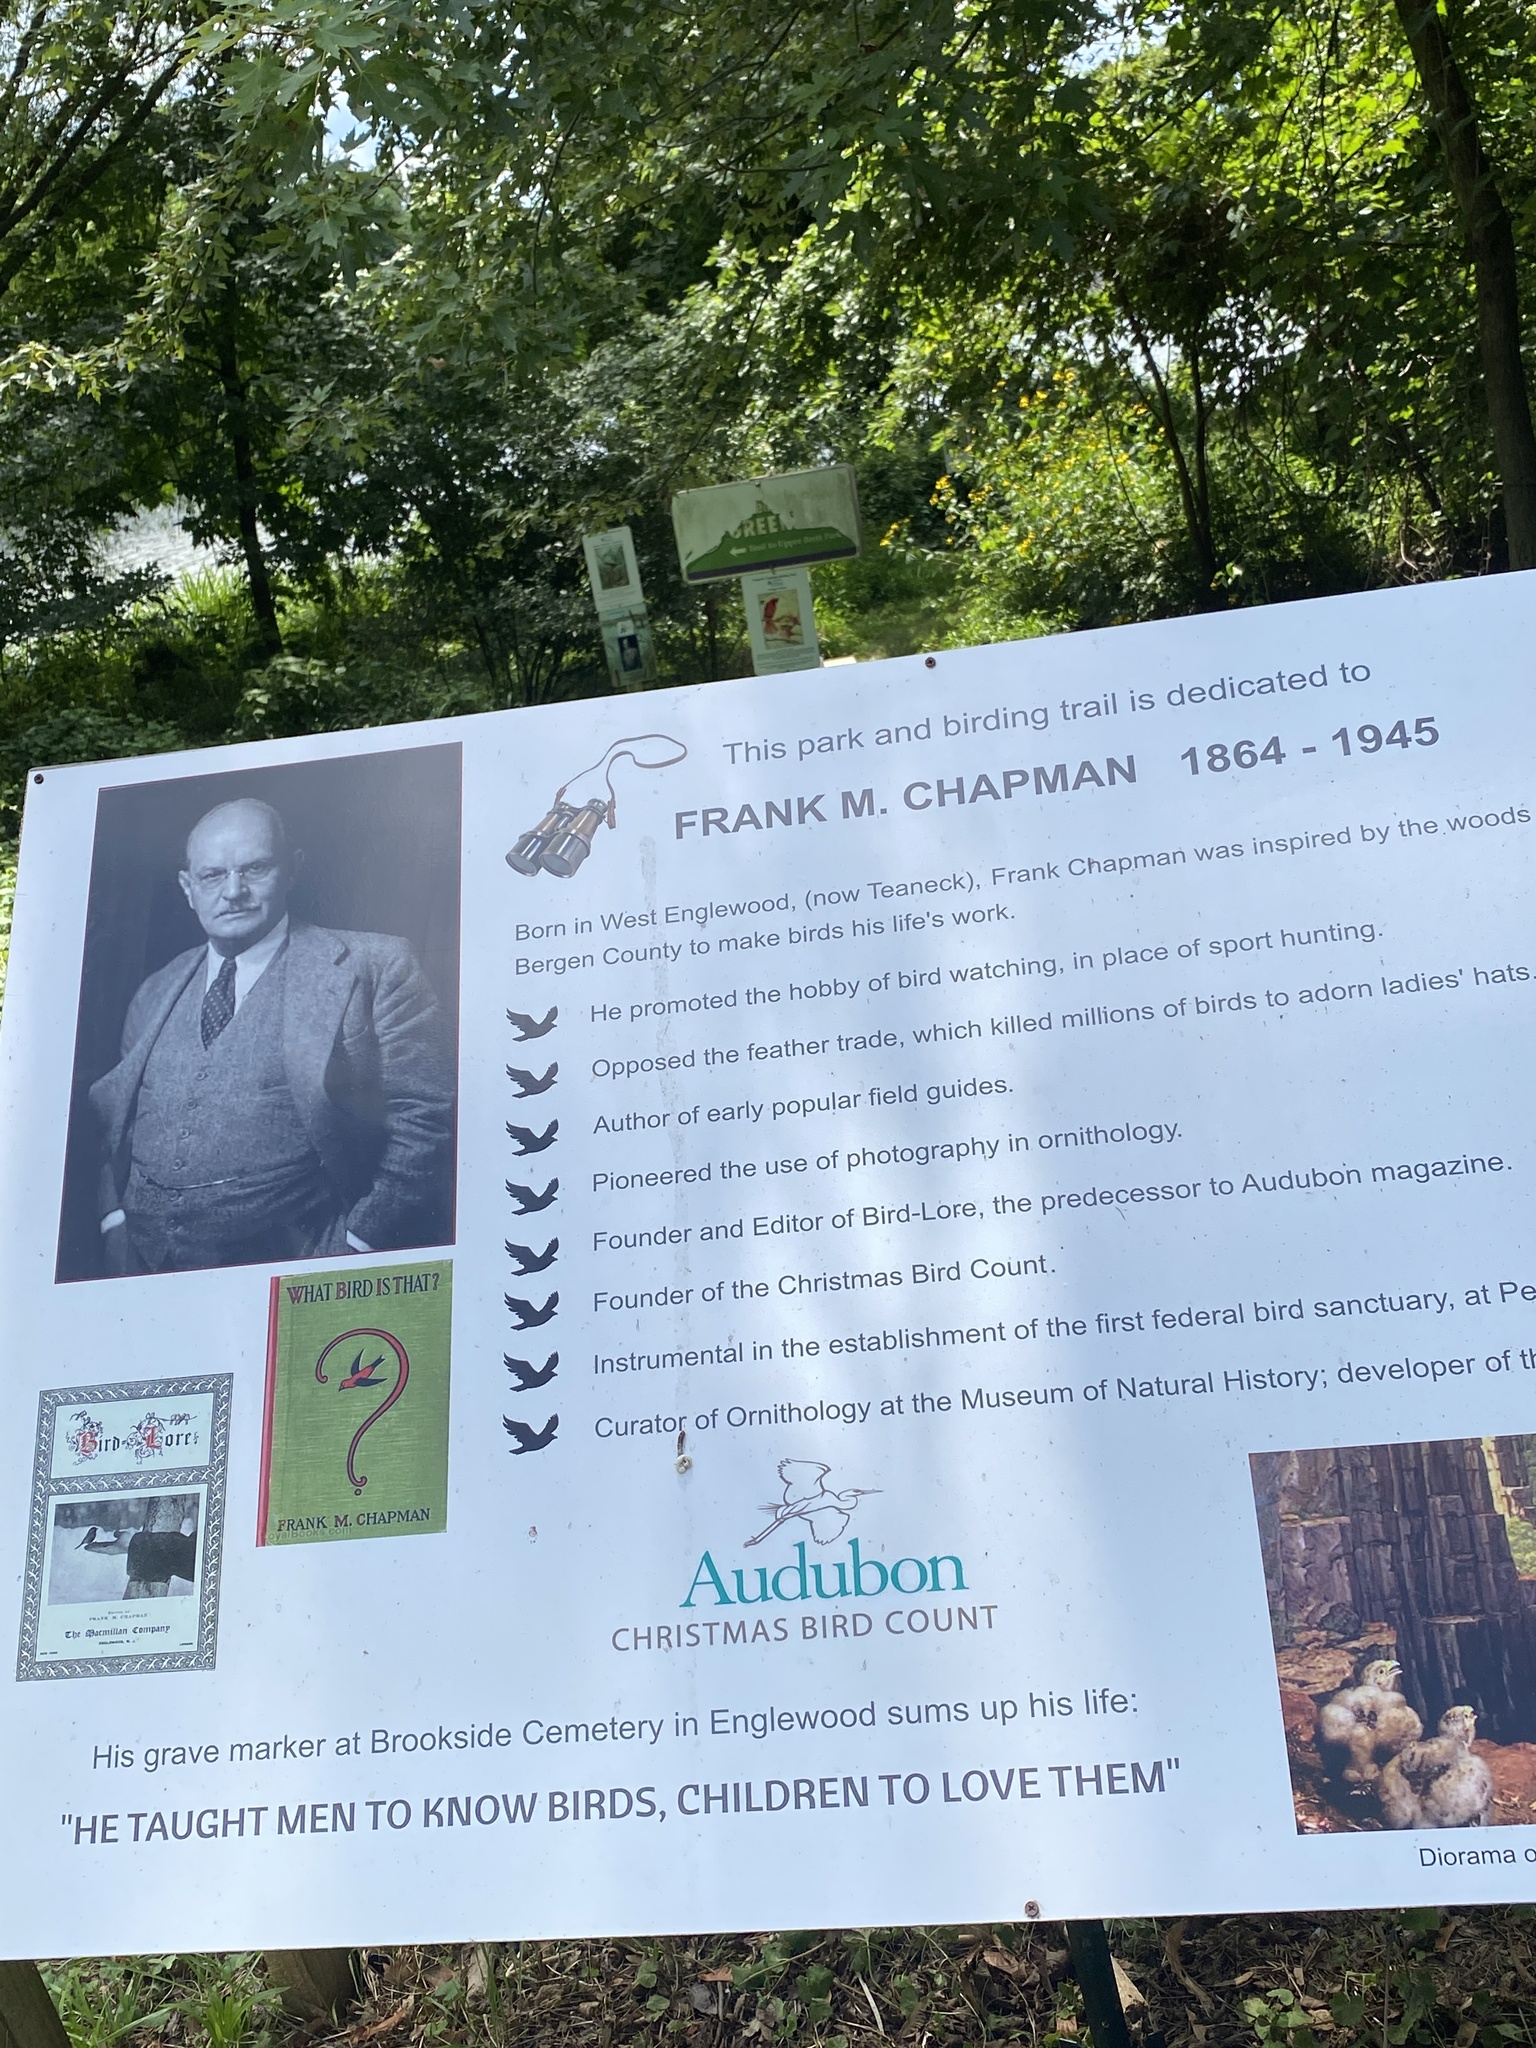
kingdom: Plantae
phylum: Tracheophyta
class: Magnoliopsida
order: Caryophyllales
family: Caryophyllaceae
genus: Saponaria
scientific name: Saponaria officinalis
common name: Soapwort
